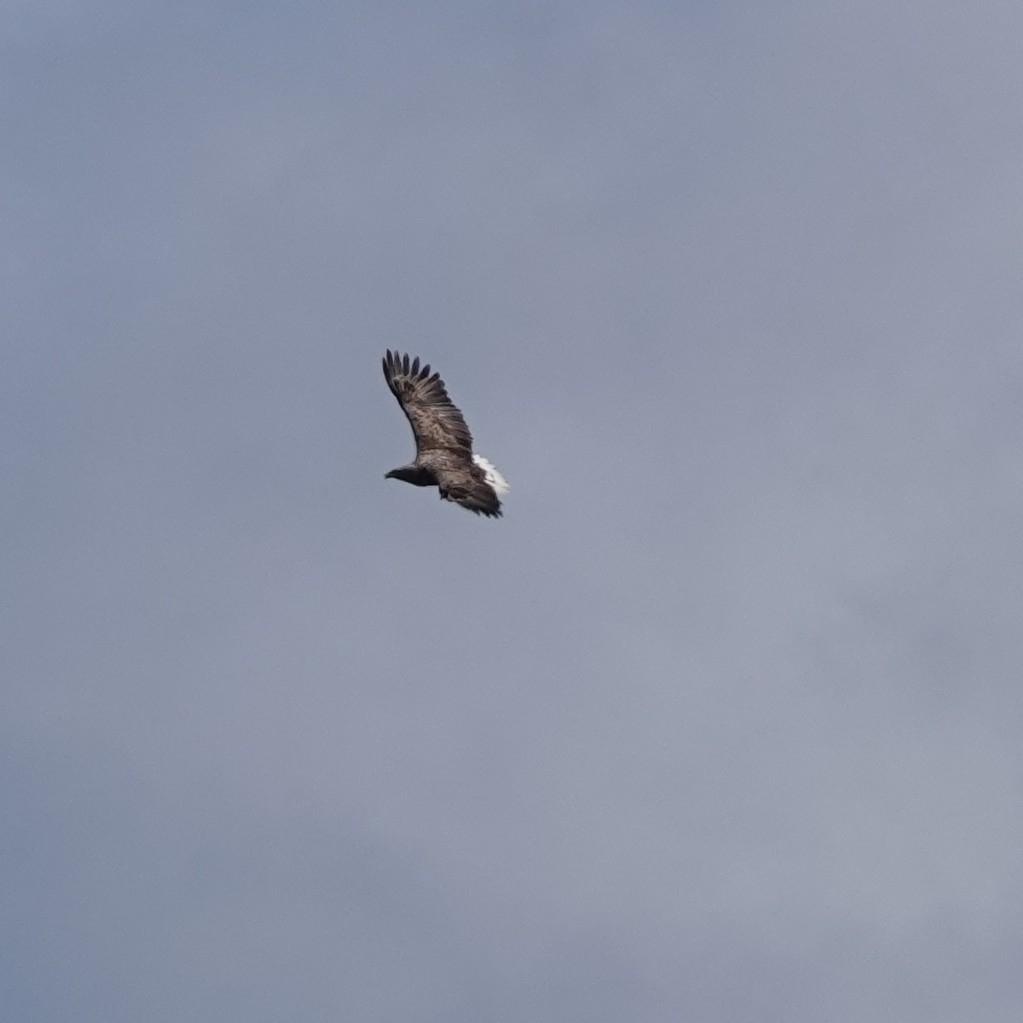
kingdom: Animalia
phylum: Chordata
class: Aves
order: Accipitriformes
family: Accipitridae
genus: Haliaeetus
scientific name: Haliaeetus albicilla
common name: White-tailed eagle
